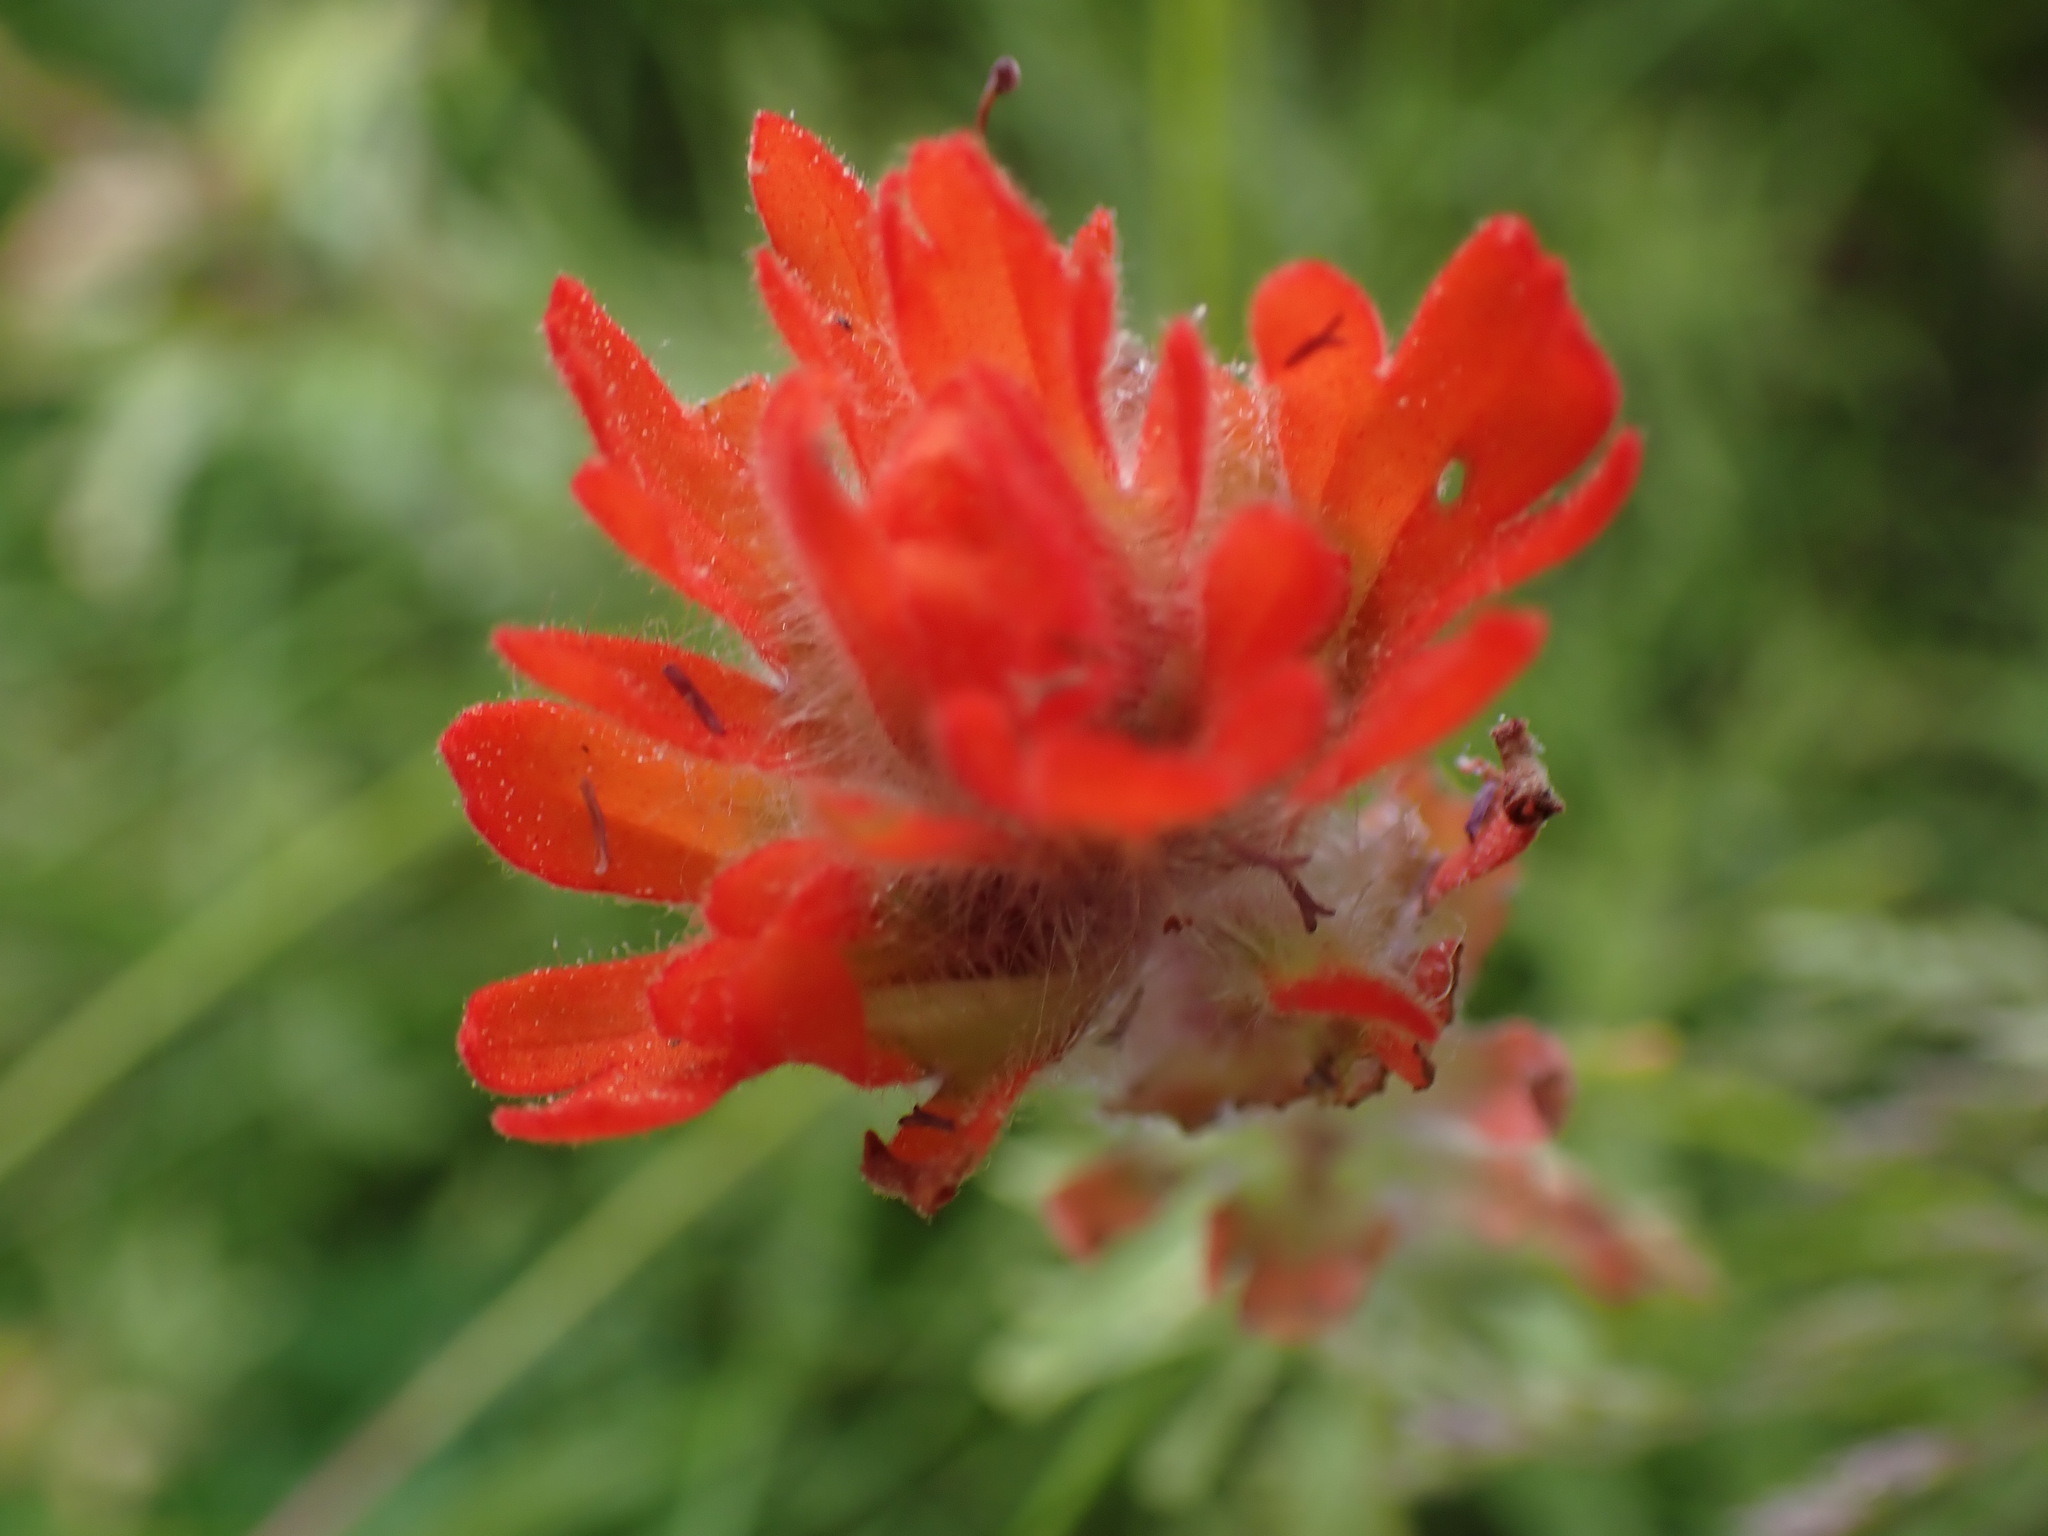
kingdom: Plantae
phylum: Tracheophyta
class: Magnoliopsida
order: Lamiales
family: Orobanchaceae
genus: Castilleja
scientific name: Castilleja hispida
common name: Bristly paintbrush
